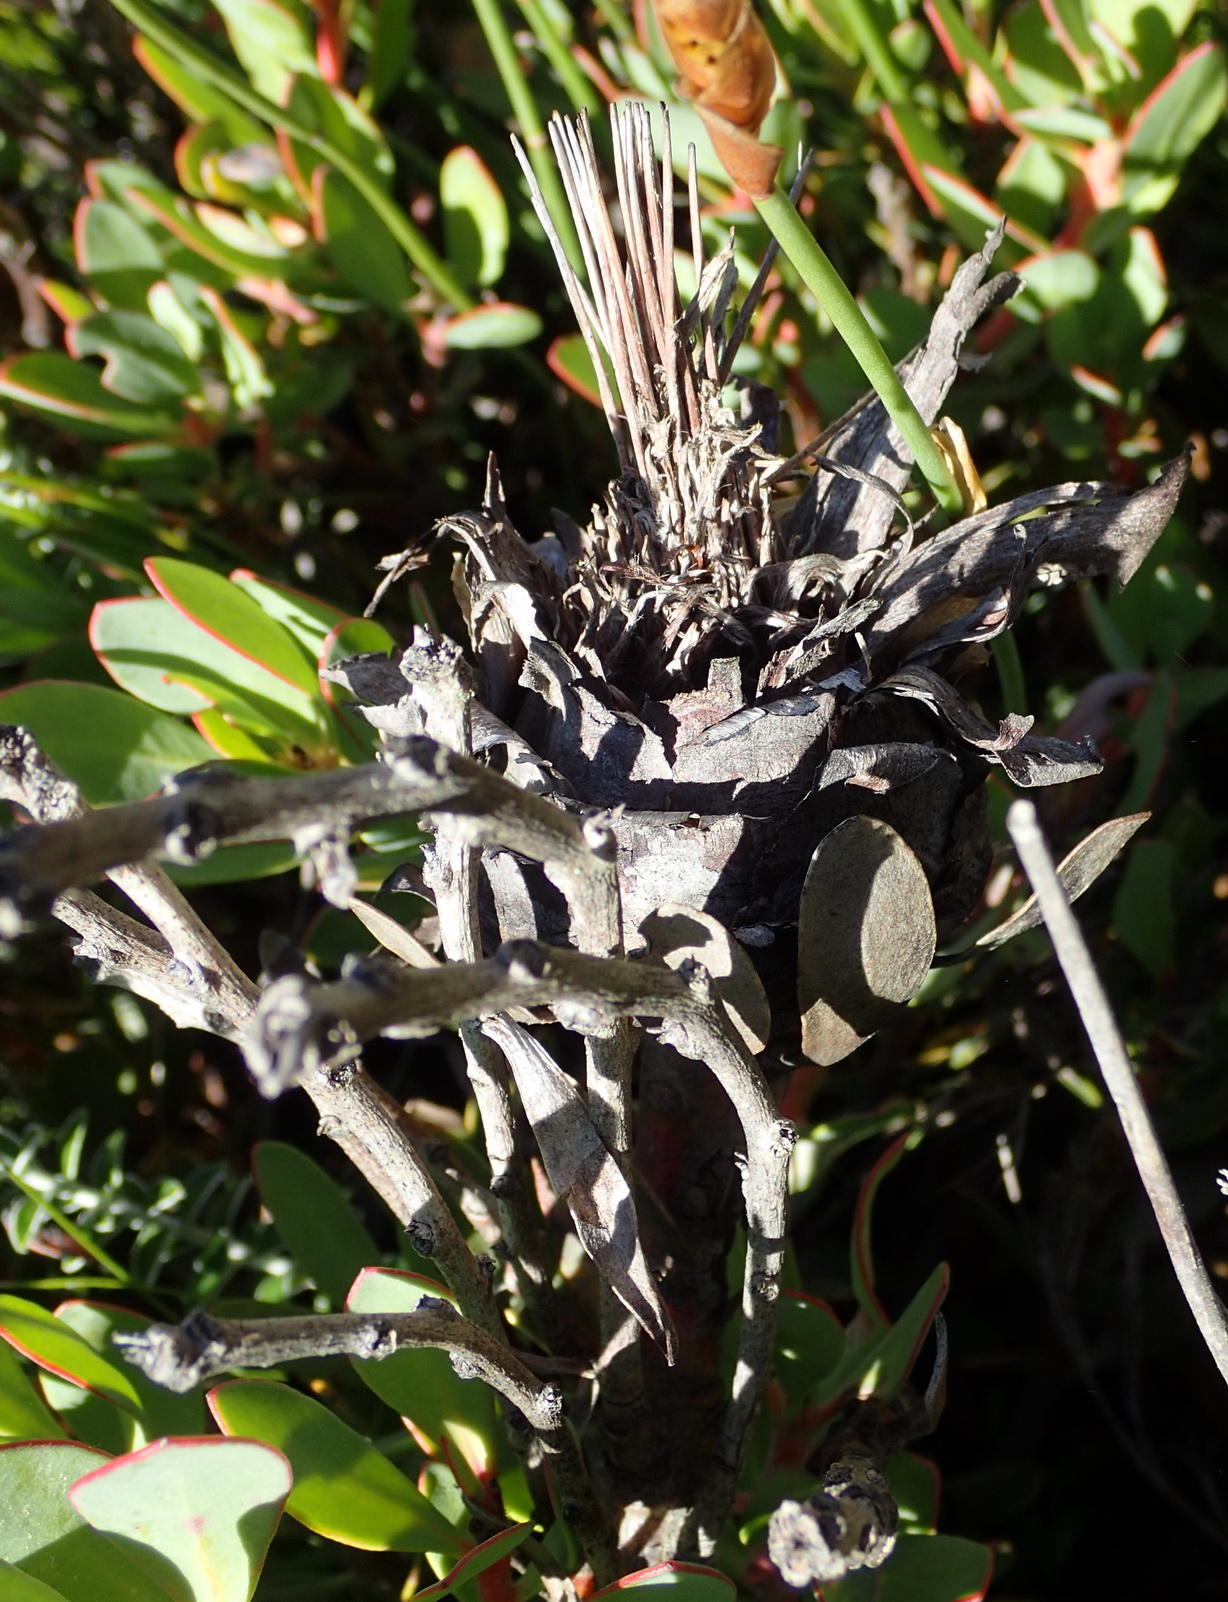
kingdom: Plantae
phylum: Tracheophyta
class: Magnoliopsida
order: Proteales
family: Proteaceae
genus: Protea
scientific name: Protea venusta
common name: Cascade sugarbush
